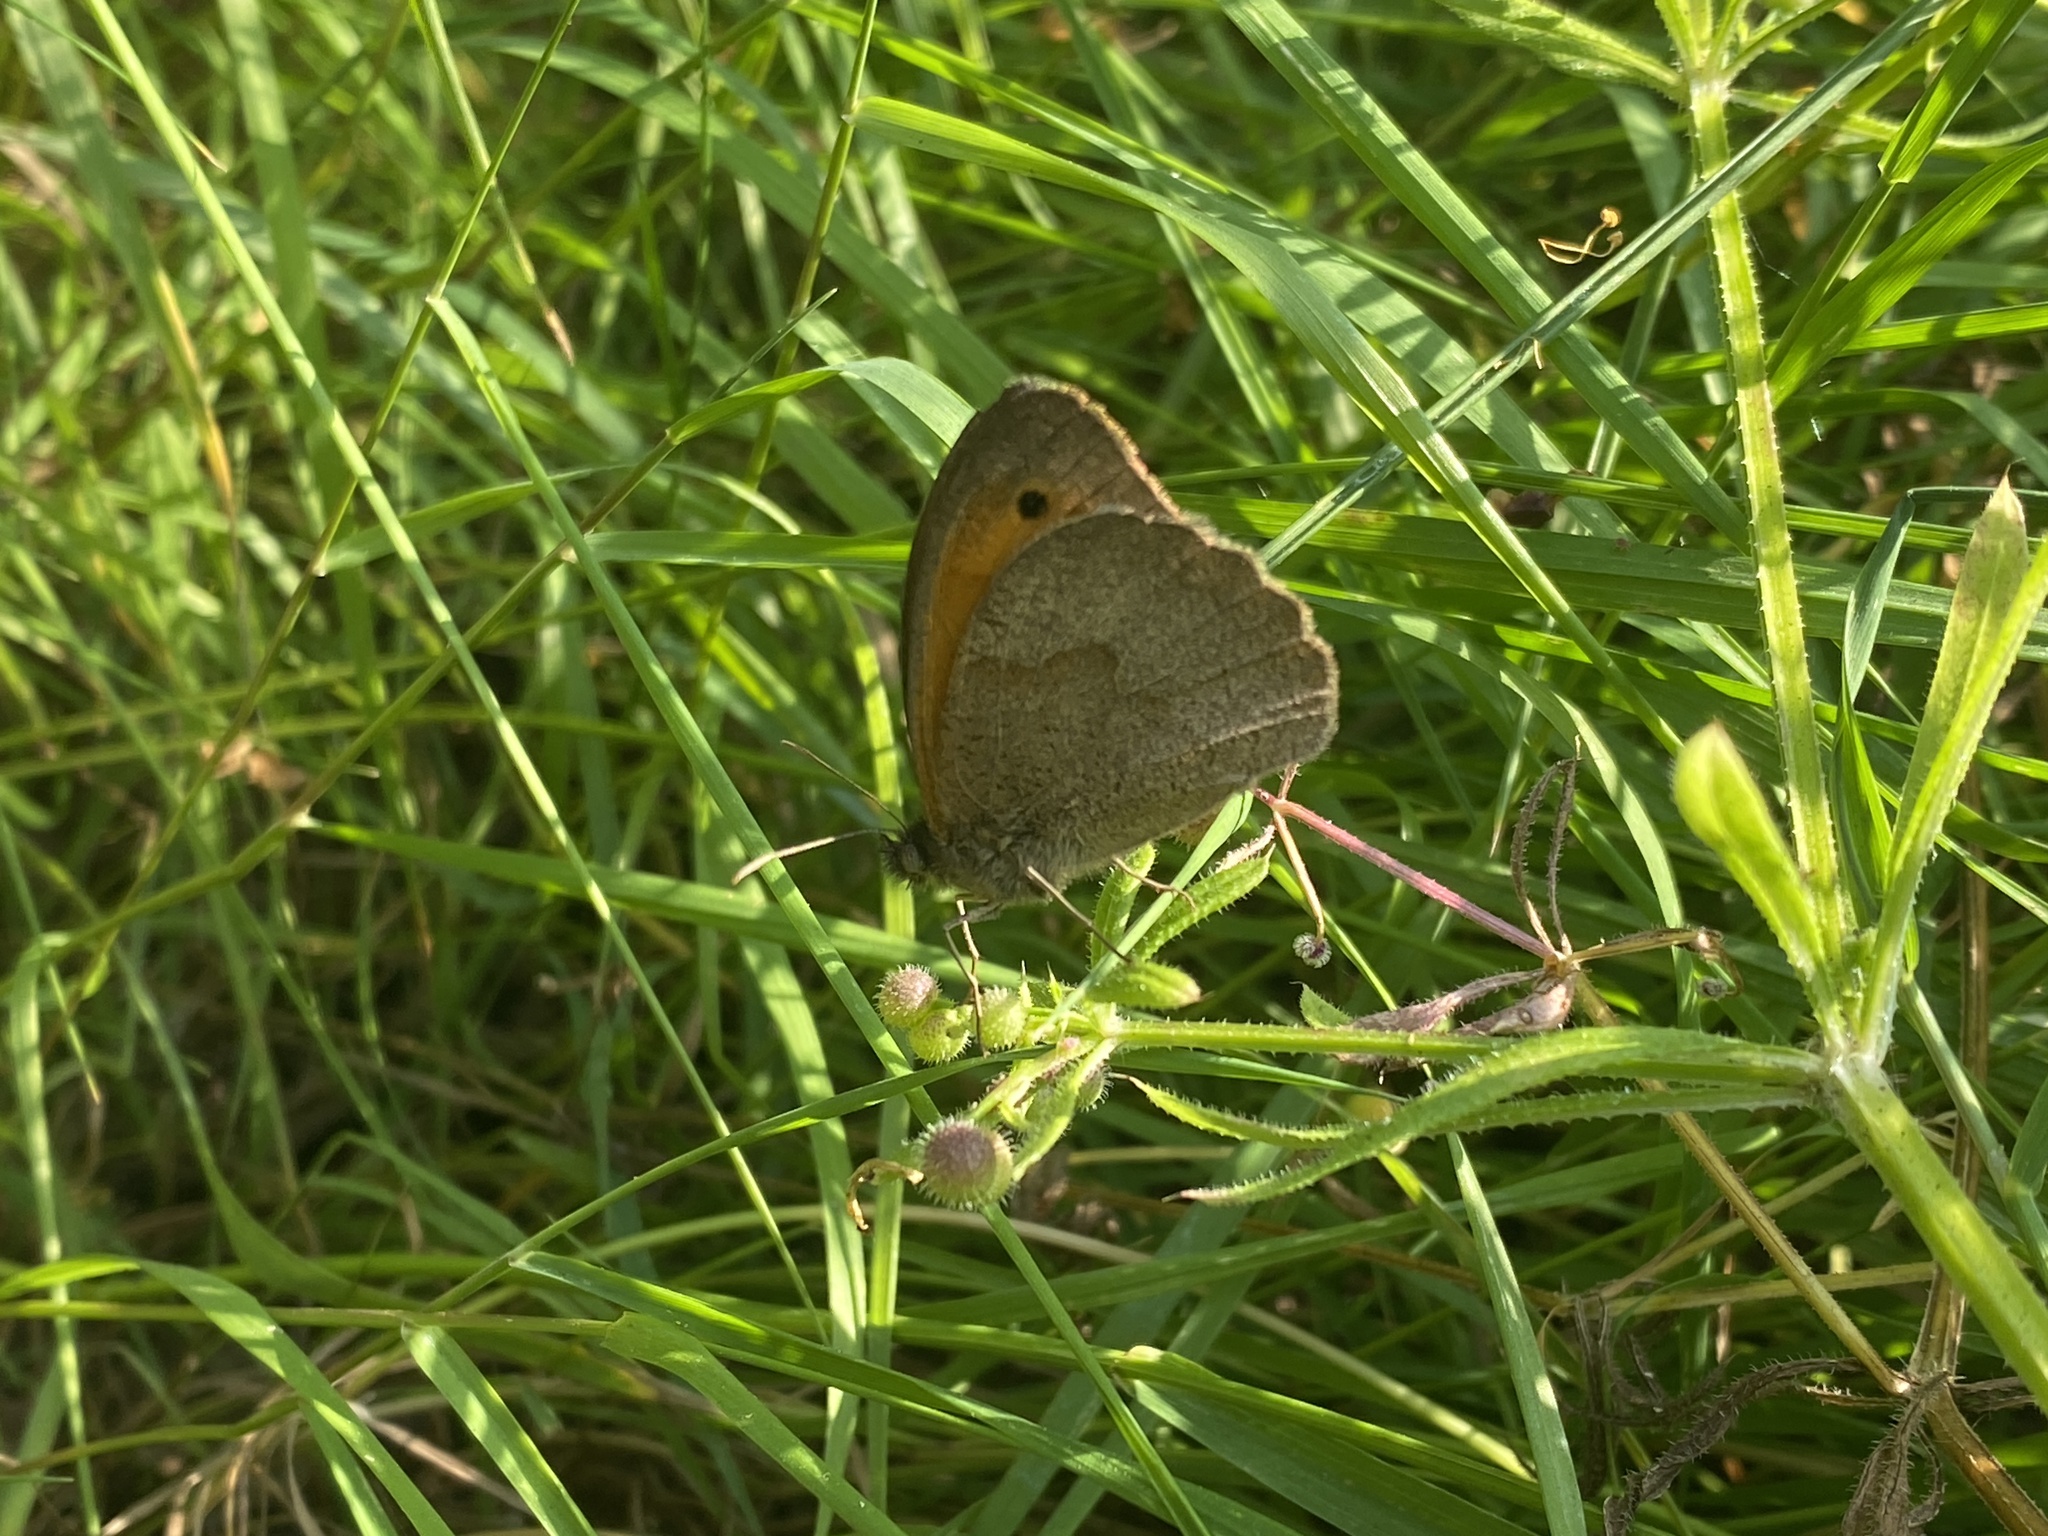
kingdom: Animalia
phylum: Arthropoda
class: Insecta
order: Lepidoptera
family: Nymphalidae
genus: Maniola
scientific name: Maniola jurtina
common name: Meadow brown
